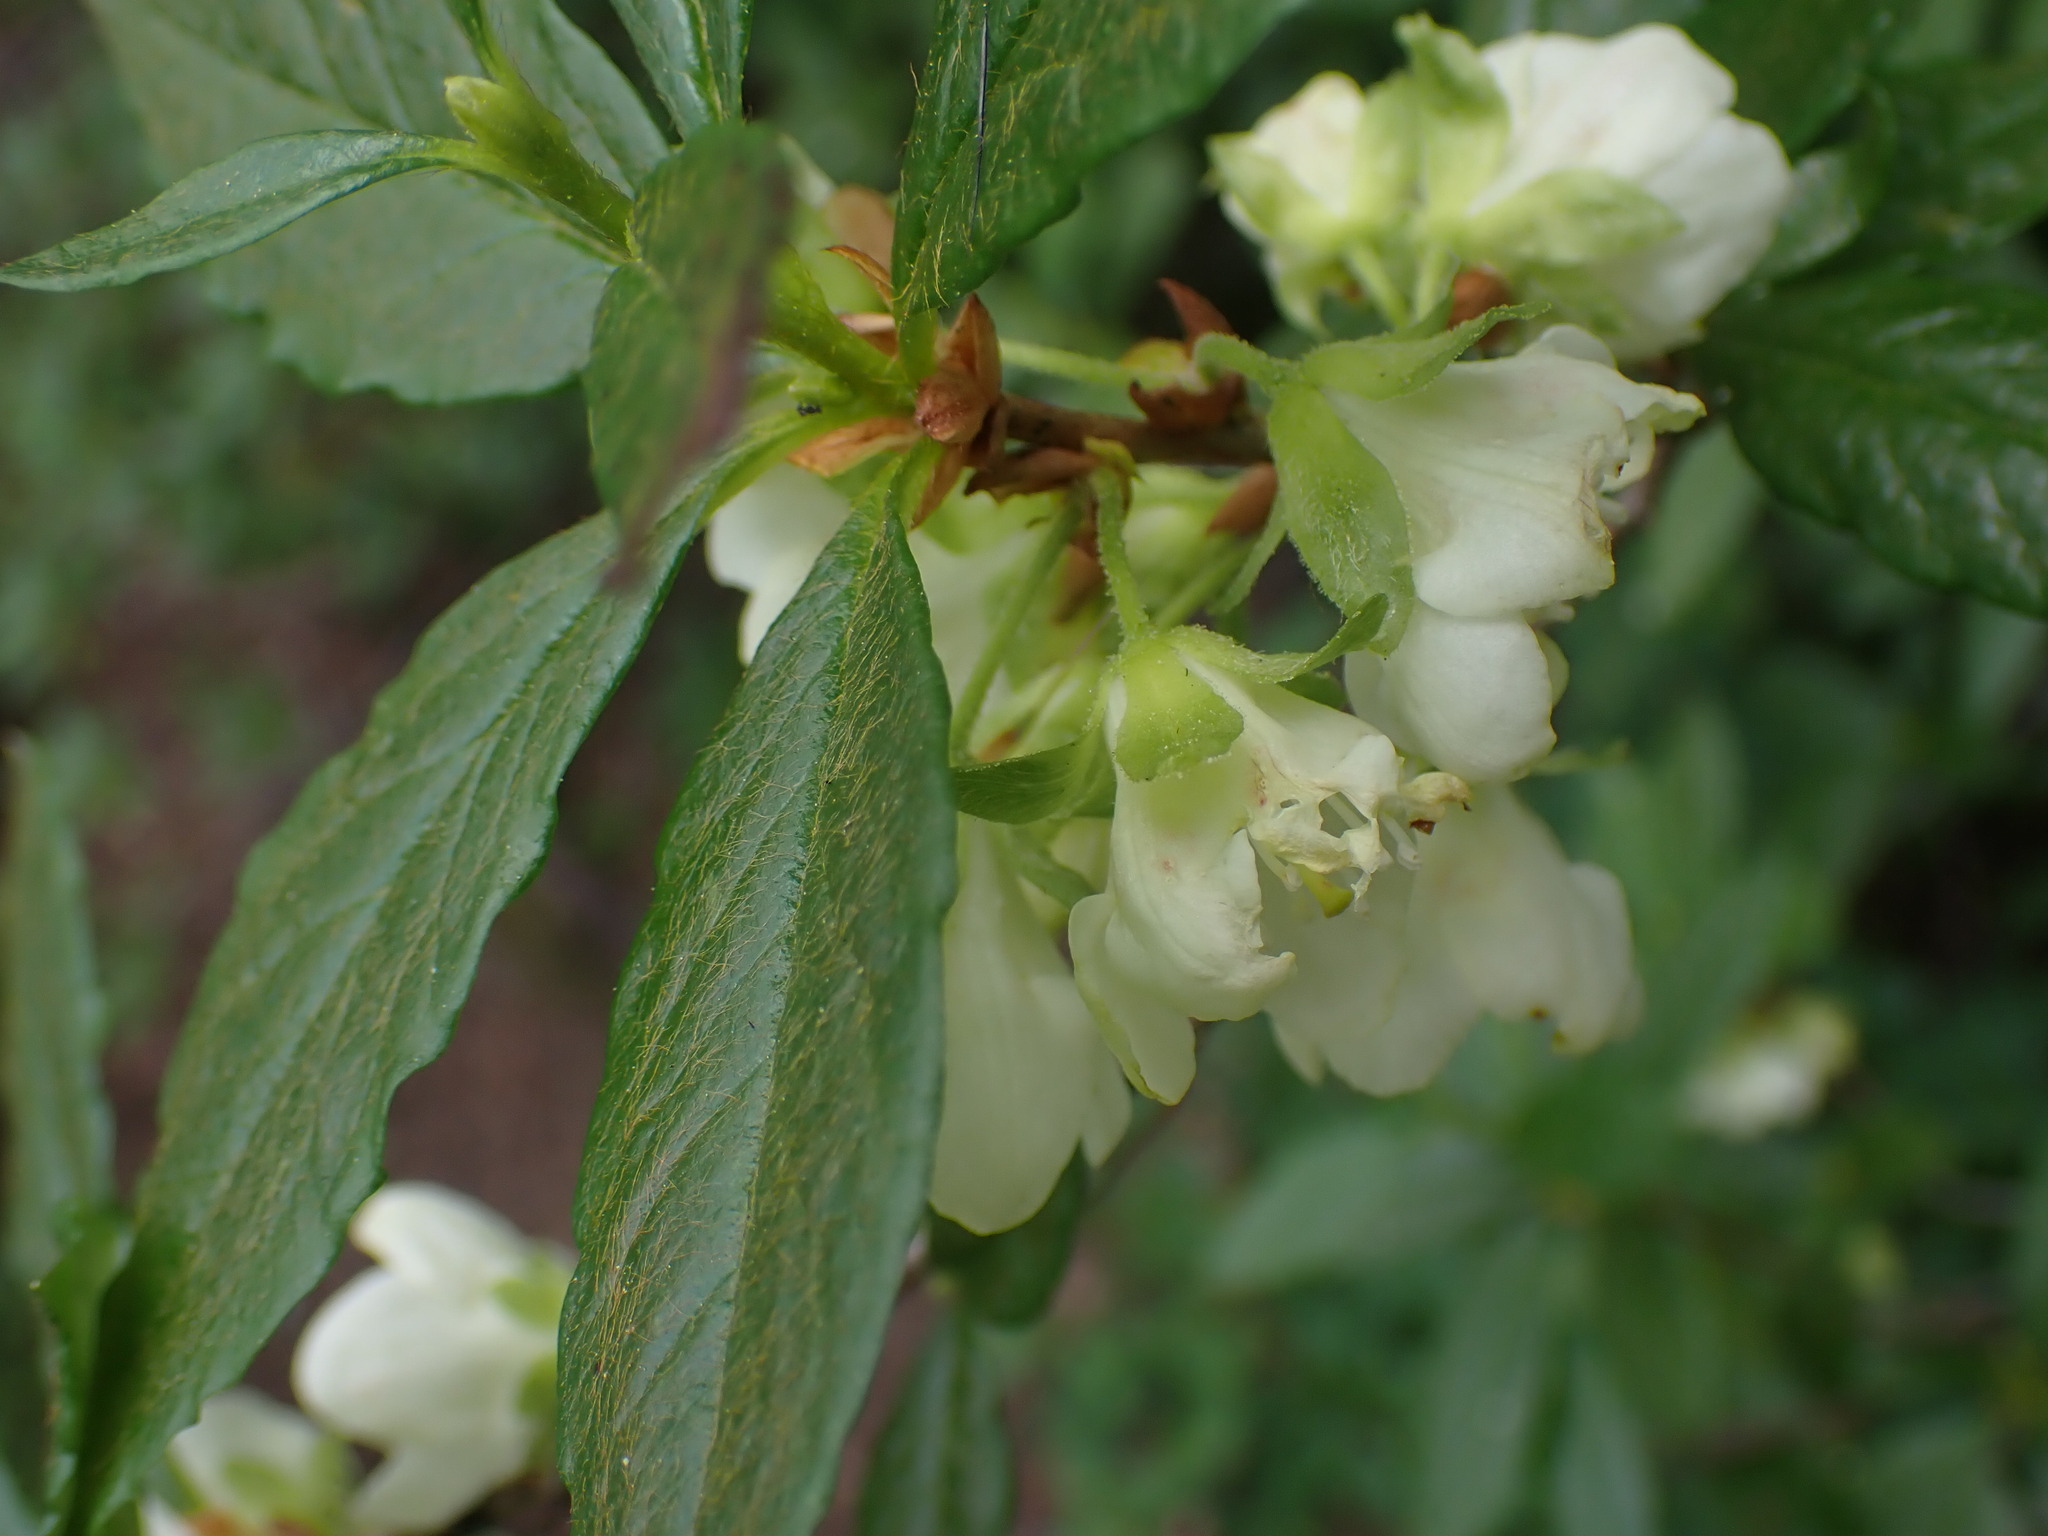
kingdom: Plantae
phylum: Tracheophyta
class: Magnoliopsida
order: Ericales
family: Ericaceae
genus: Rhododendron
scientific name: Rhododendron albiflorum
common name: White rhododendron
